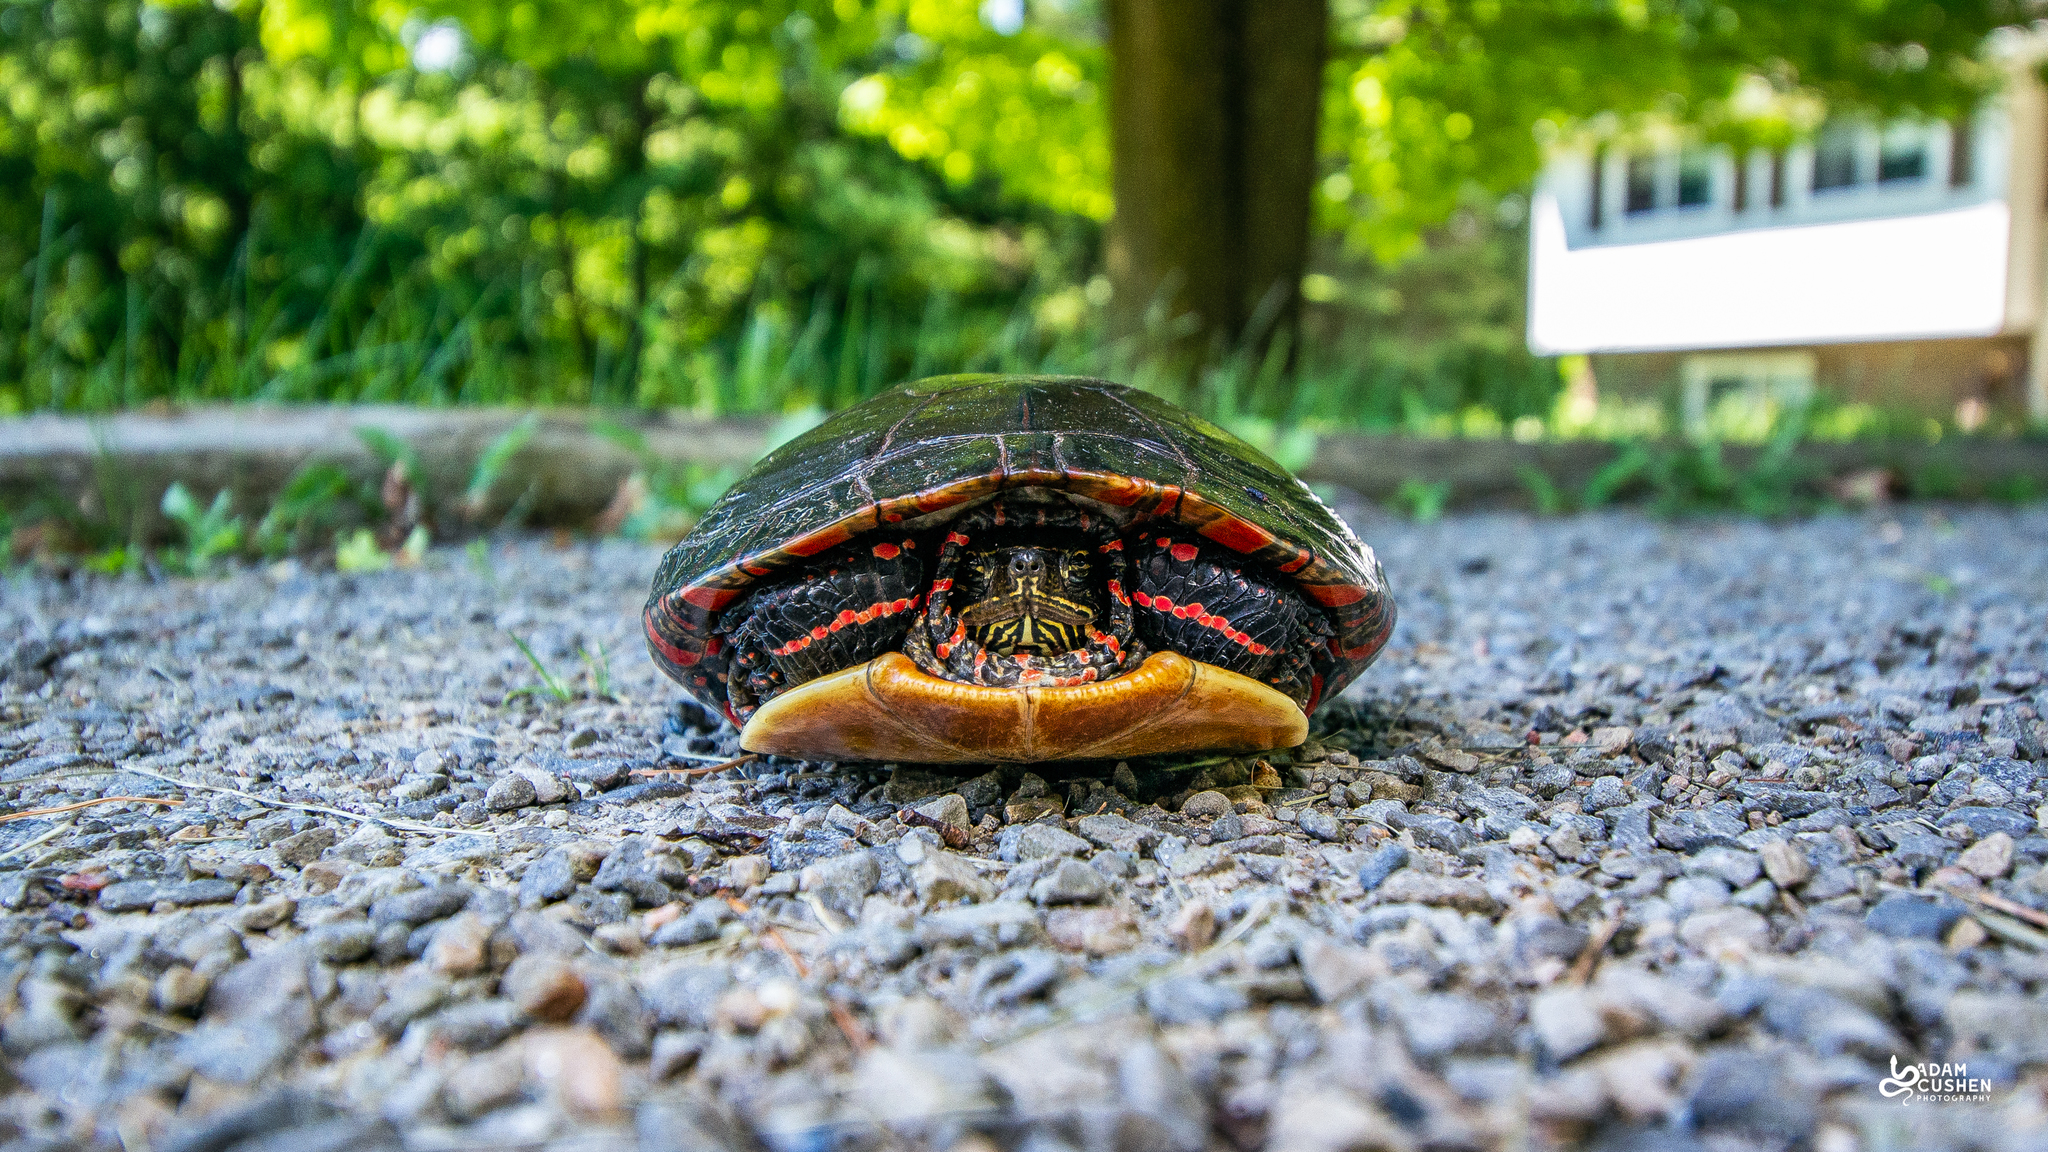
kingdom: Animalia
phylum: Chordata
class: Testudines
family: Emydidae
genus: Chrysemys
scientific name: Chrysemys picta
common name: Painted turtle
